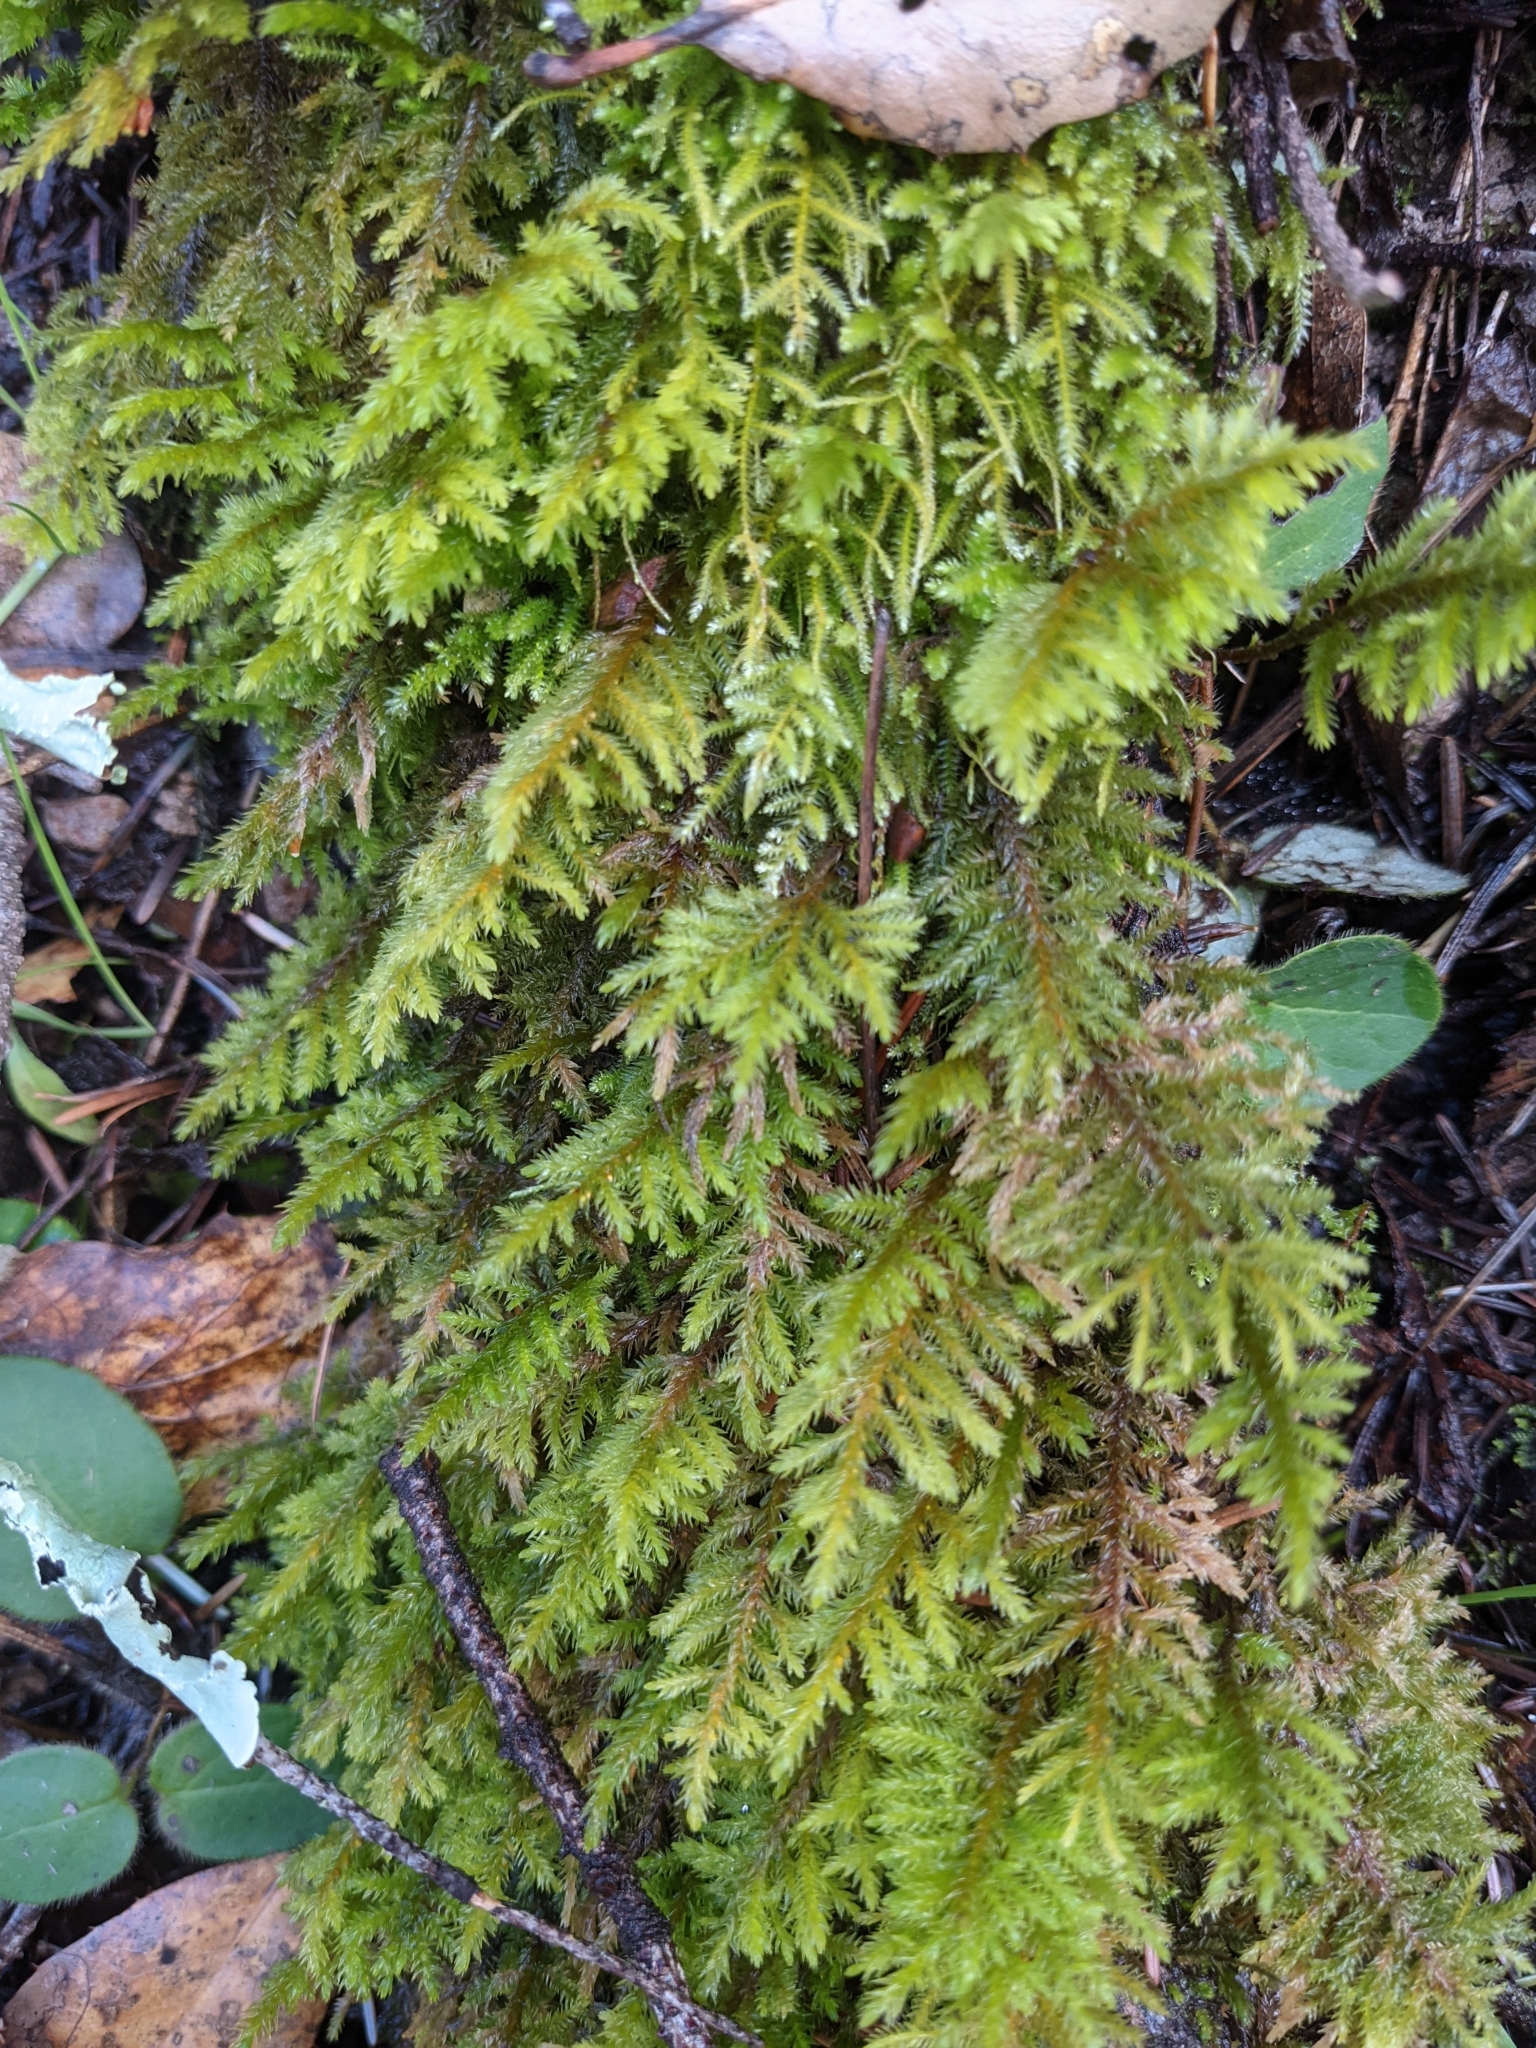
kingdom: Plantae
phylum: Bryophyta
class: Bryopsida
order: Hypnales
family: Cryphaeaceae
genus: Dendroalsia
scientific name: Dendroalsia abietina
